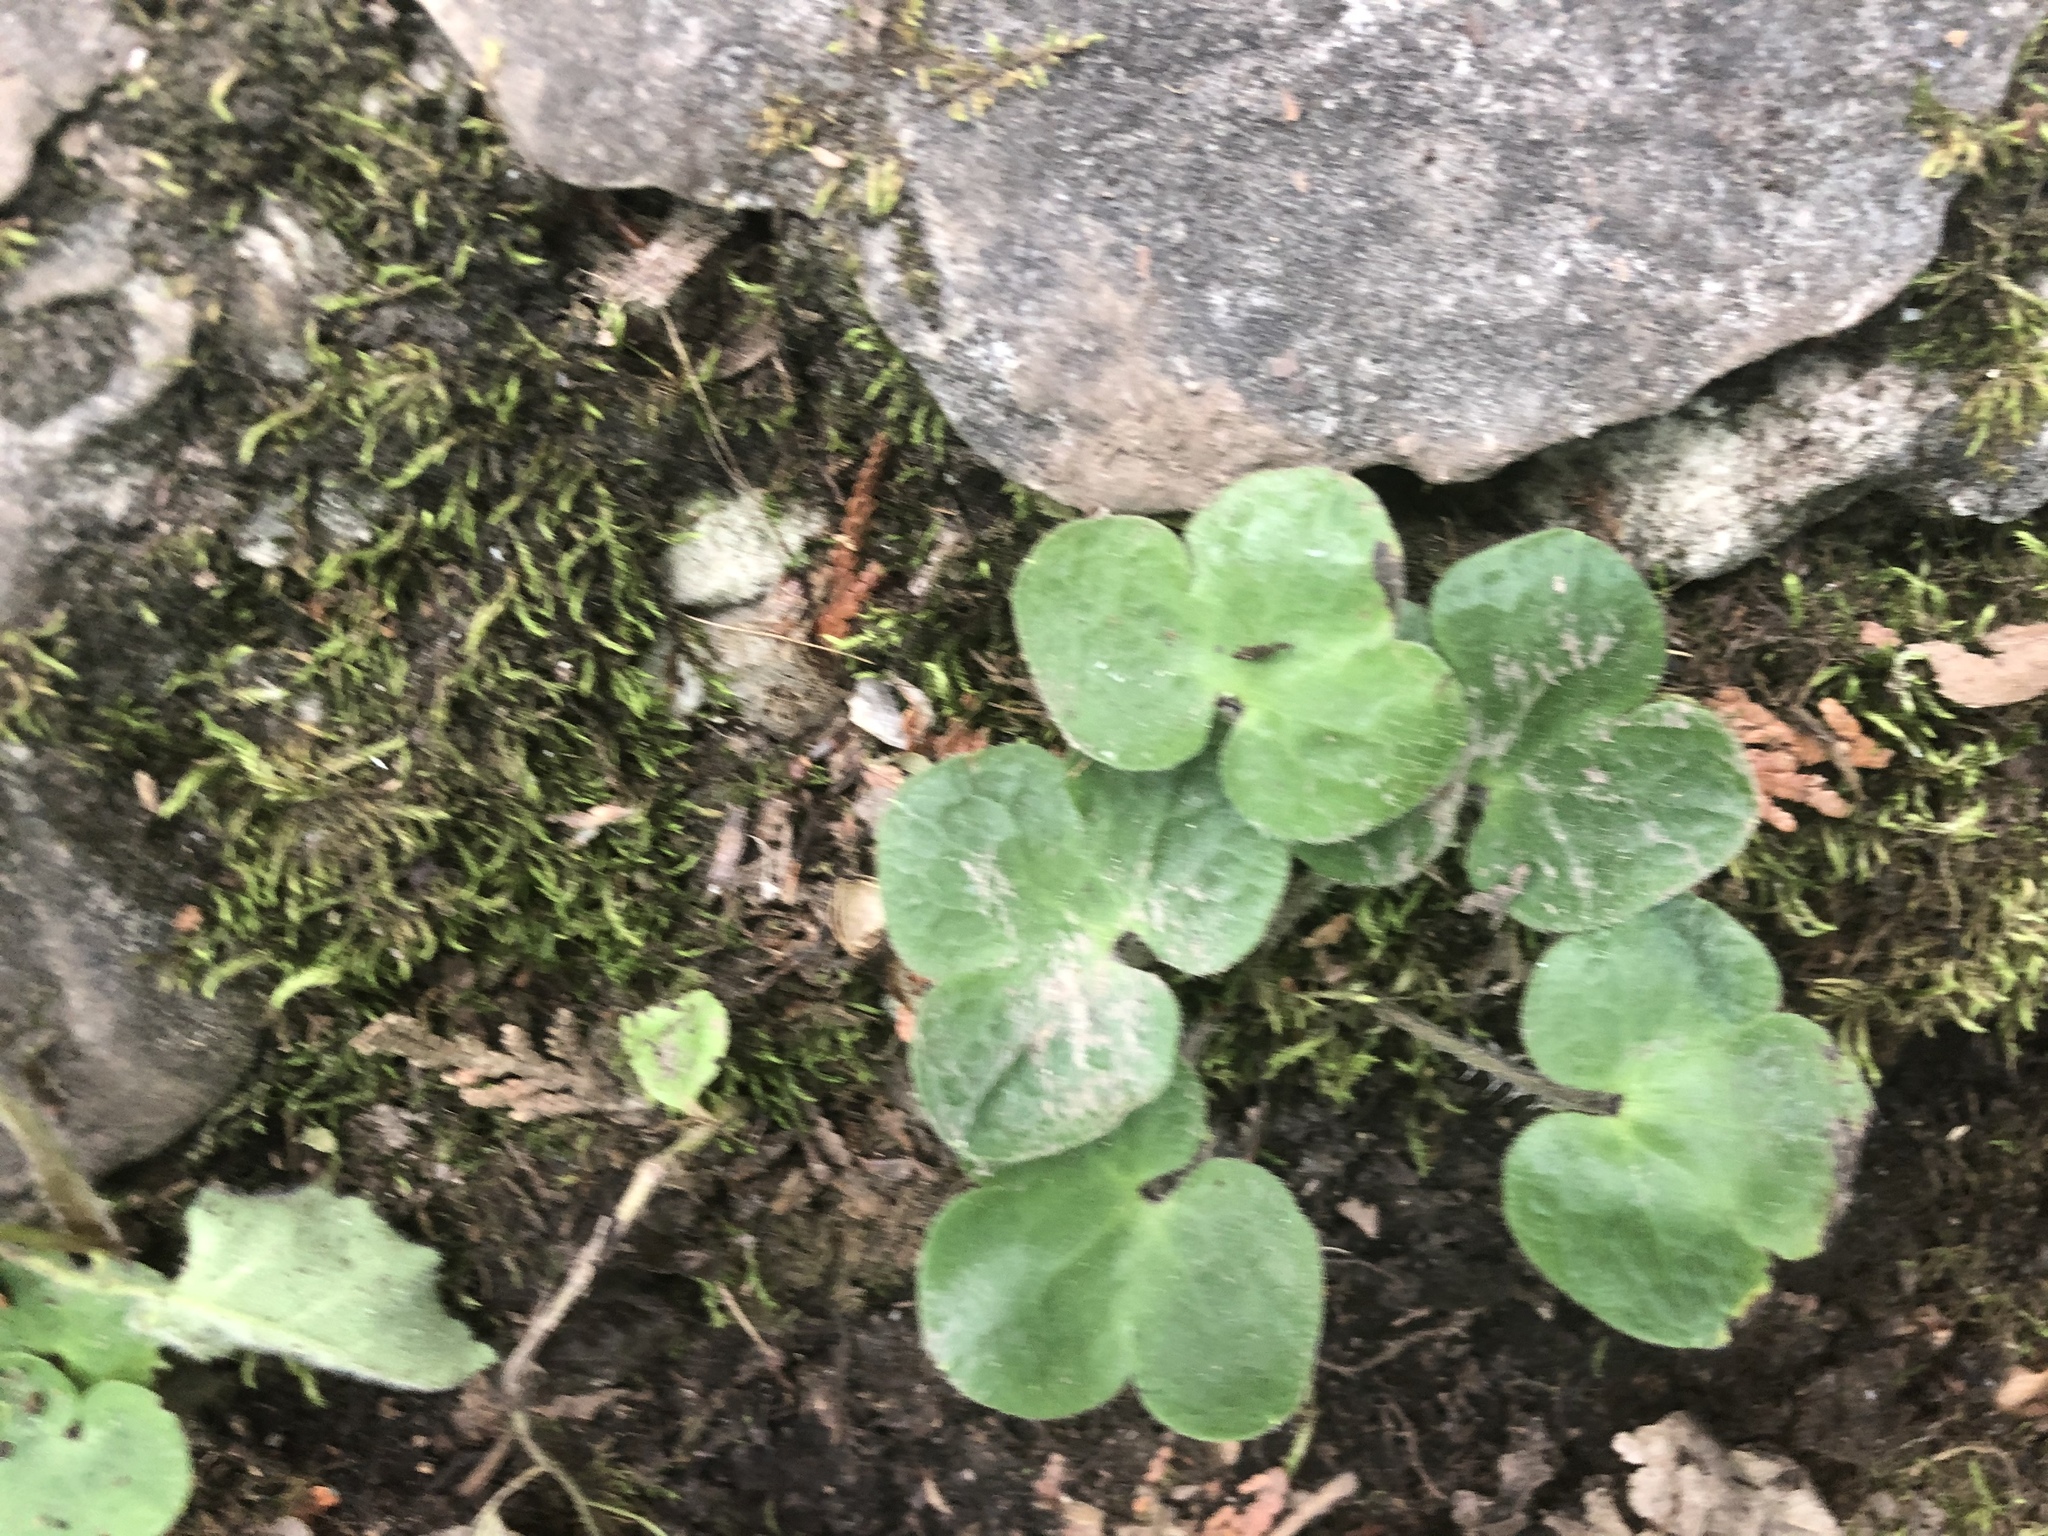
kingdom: Plantae
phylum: Tracheophyta
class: Magnoliopsida
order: Ranunculales
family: Ranunculaceae
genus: Hepatica
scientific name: Hepatica americana
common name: American hepatica
